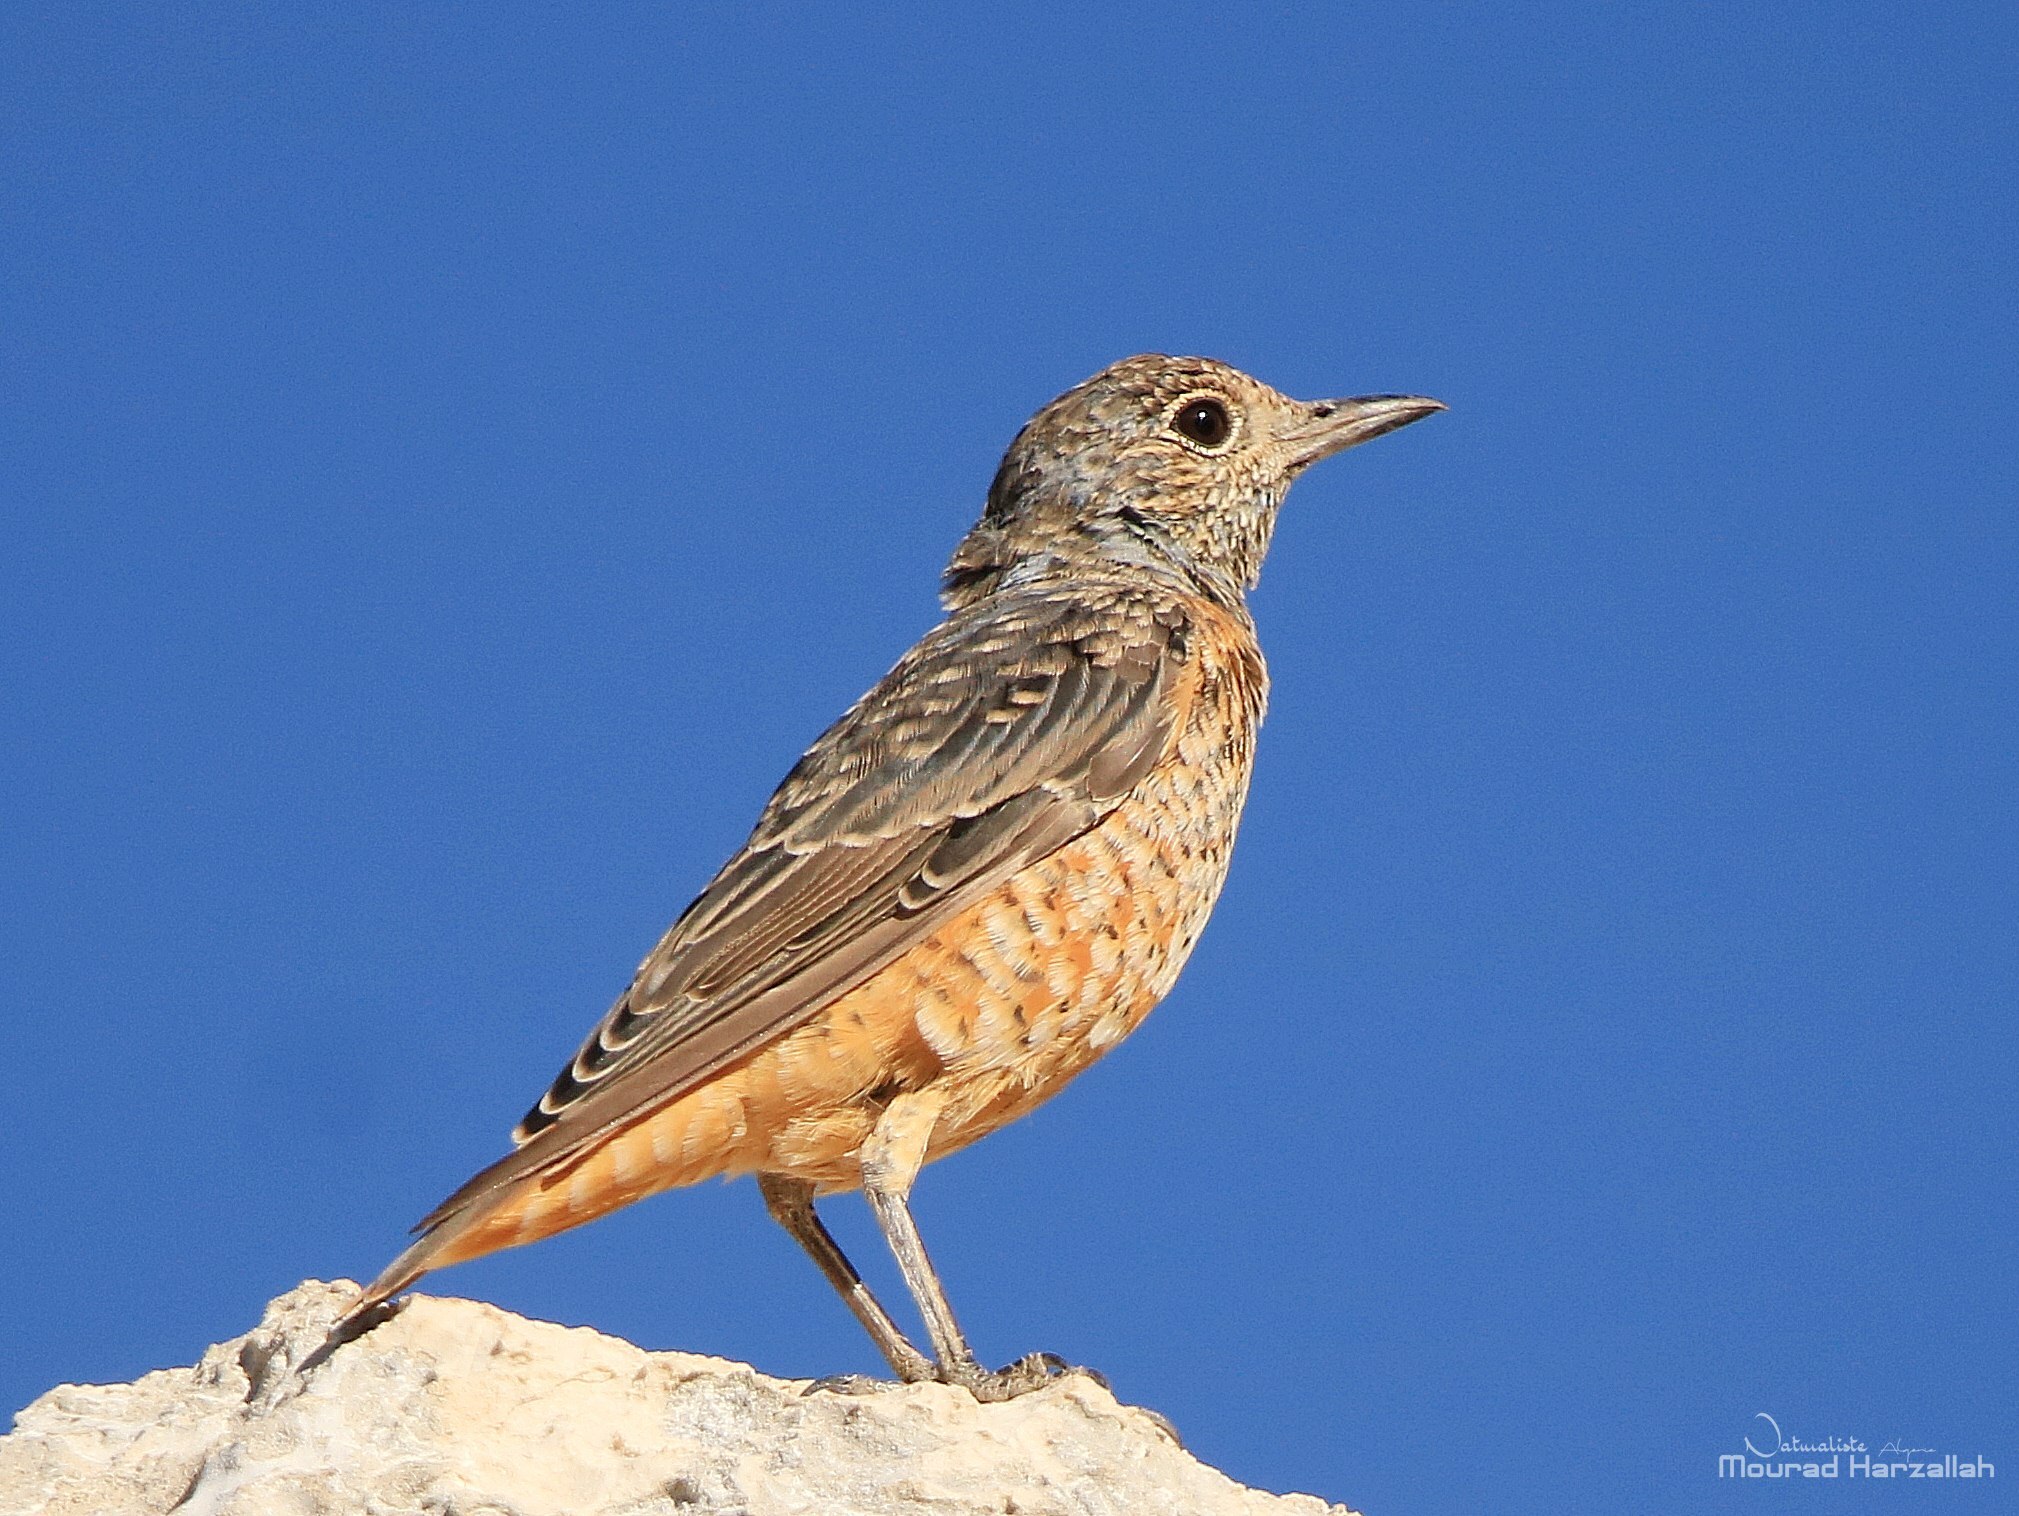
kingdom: Animalia
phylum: Chordata
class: Aves
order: Passeriformes
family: Muscicapidae
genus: Monticola
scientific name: Monticola saxatilis
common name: Rufous-tailed rock thrush
